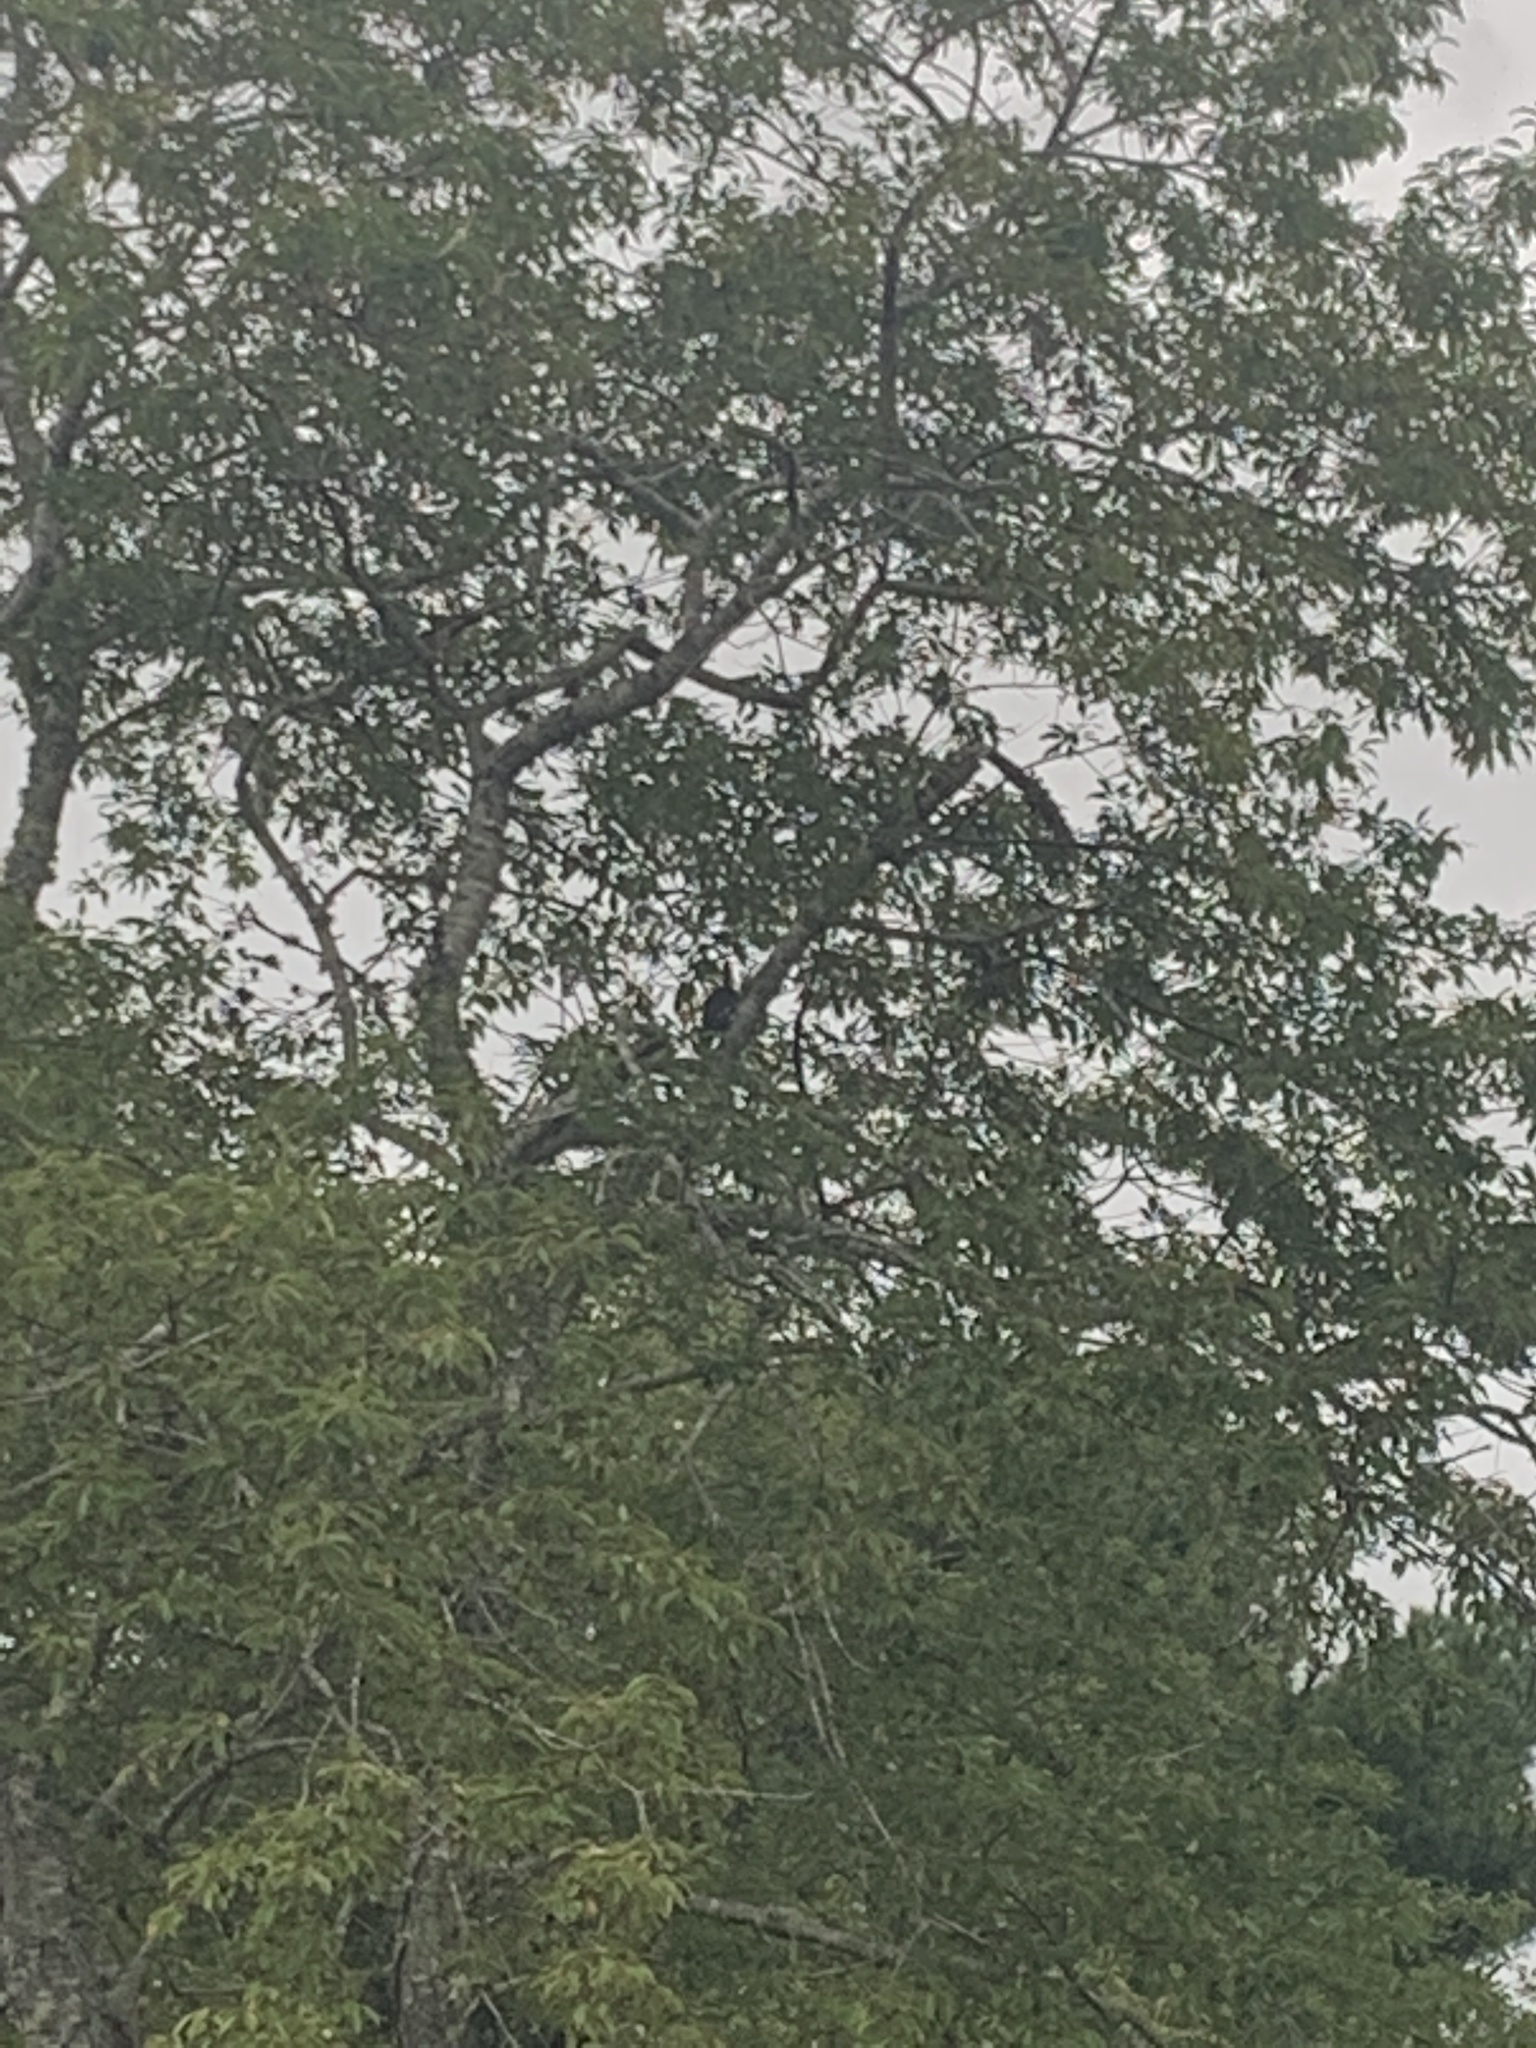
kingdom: Animalia
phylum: Chordata
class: Aves
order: Piciformes
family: Picidae
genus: Dryocopus
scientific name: Dryocopus pileatus
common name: Pileated woodpecker
